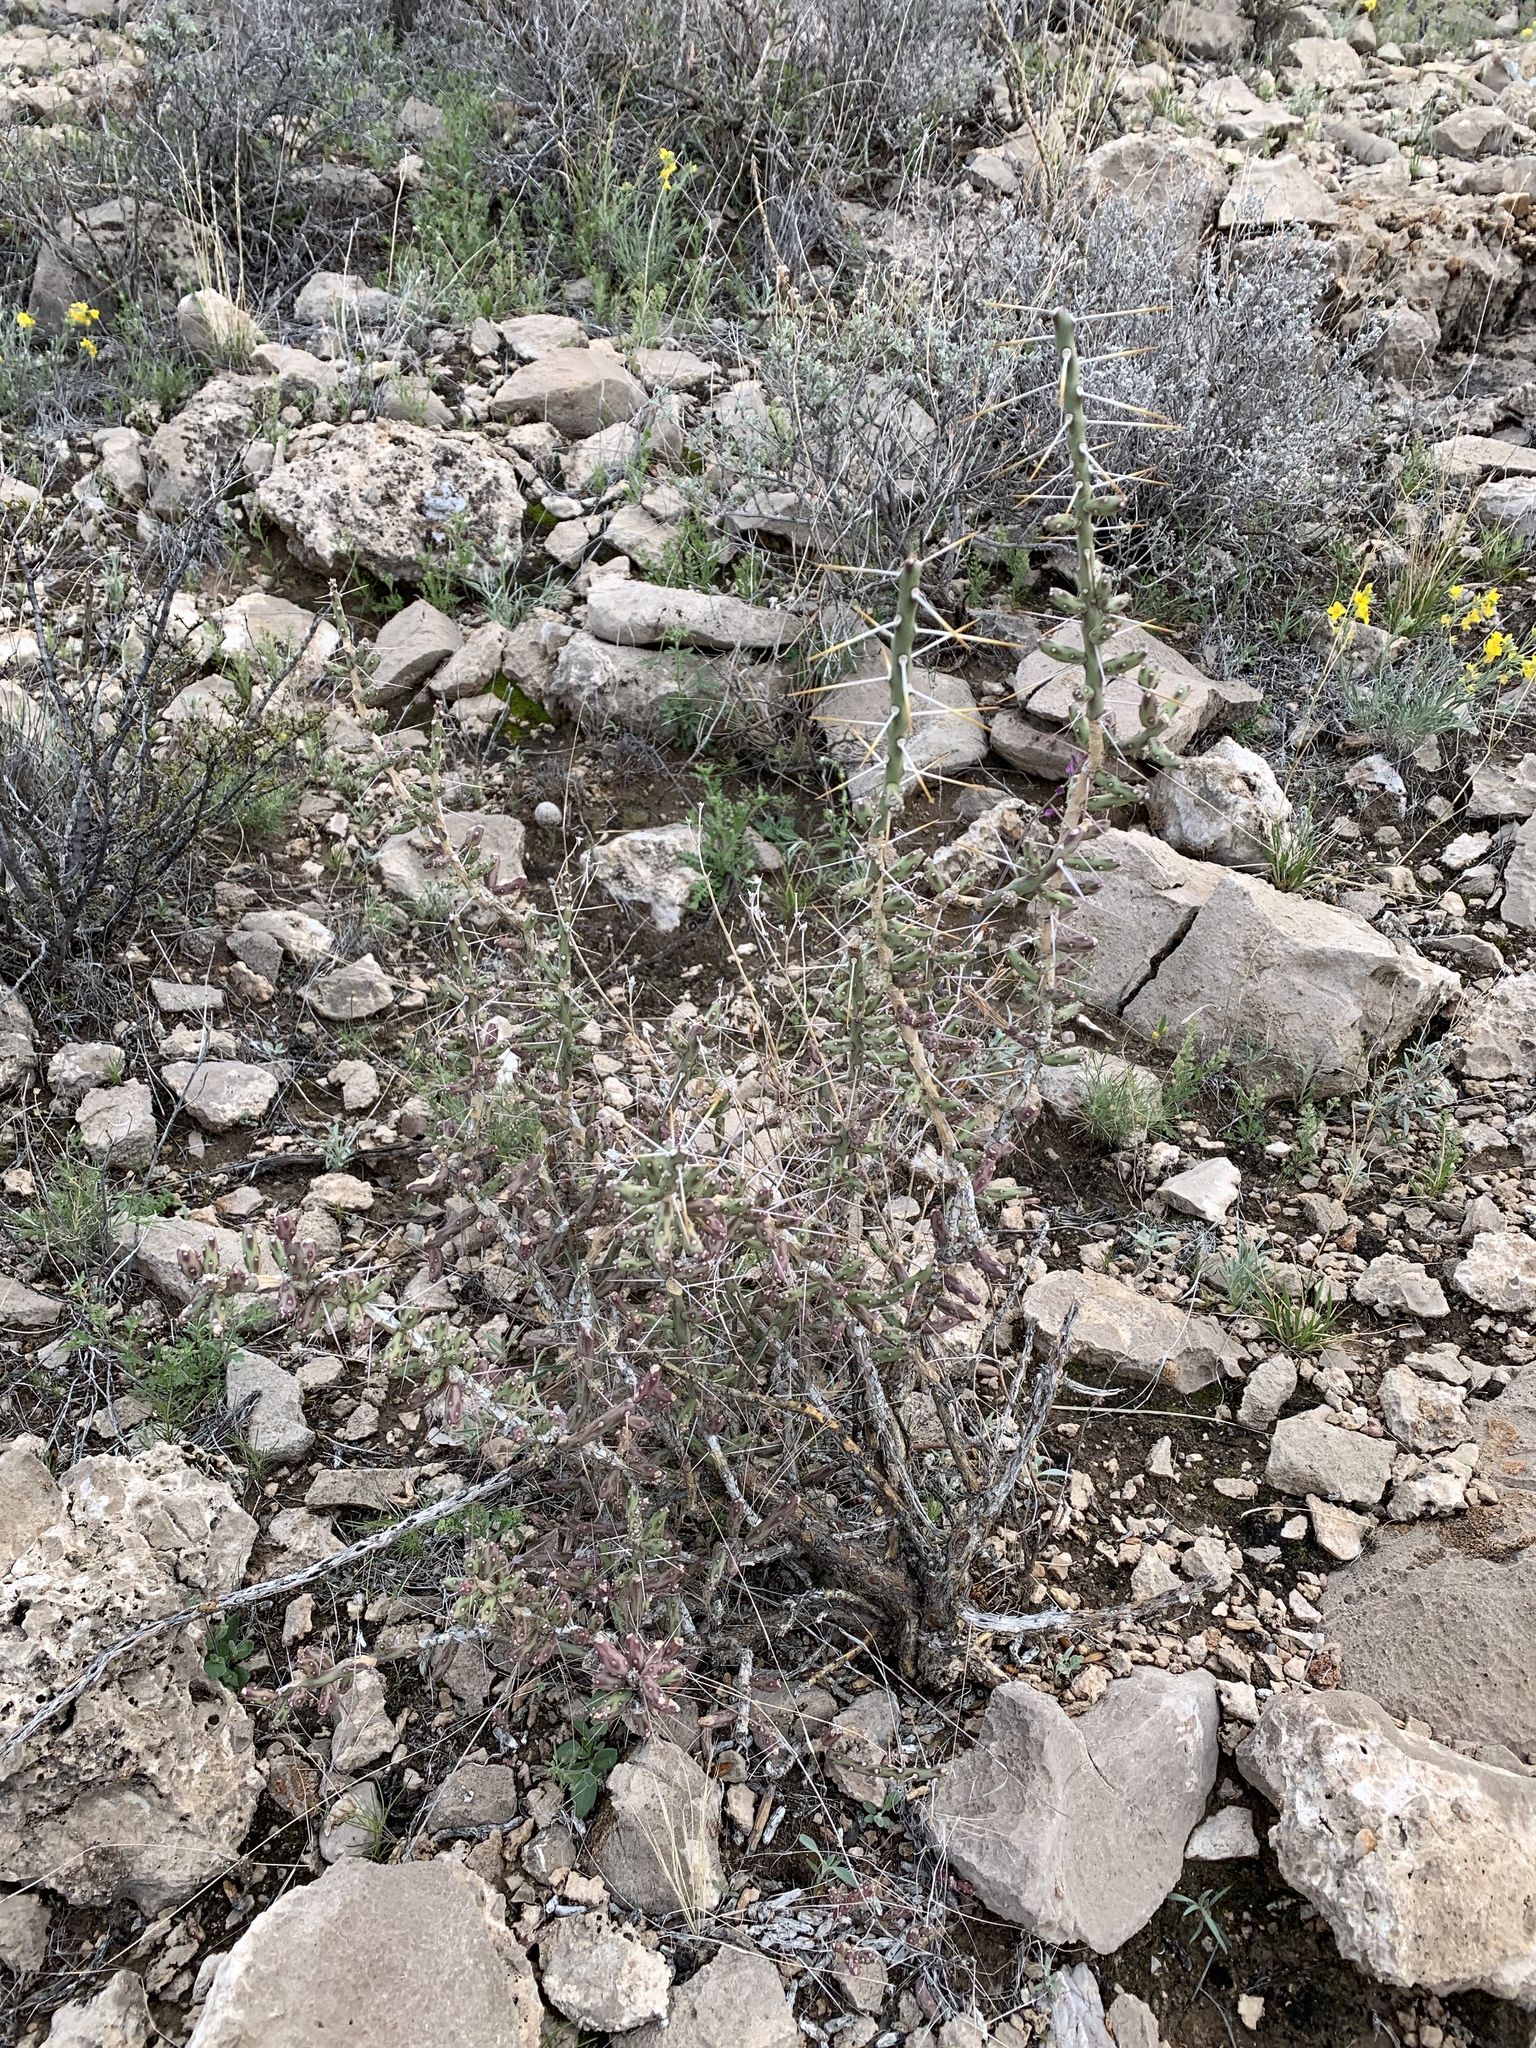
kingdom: Plantae
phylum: Tracheophyta
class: Magnoliopsida
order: Caryophyllales
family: Cactaceae
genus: Cylindropuntia
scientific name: Cylindropuntia leptocaulis
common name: Christmas cactus
